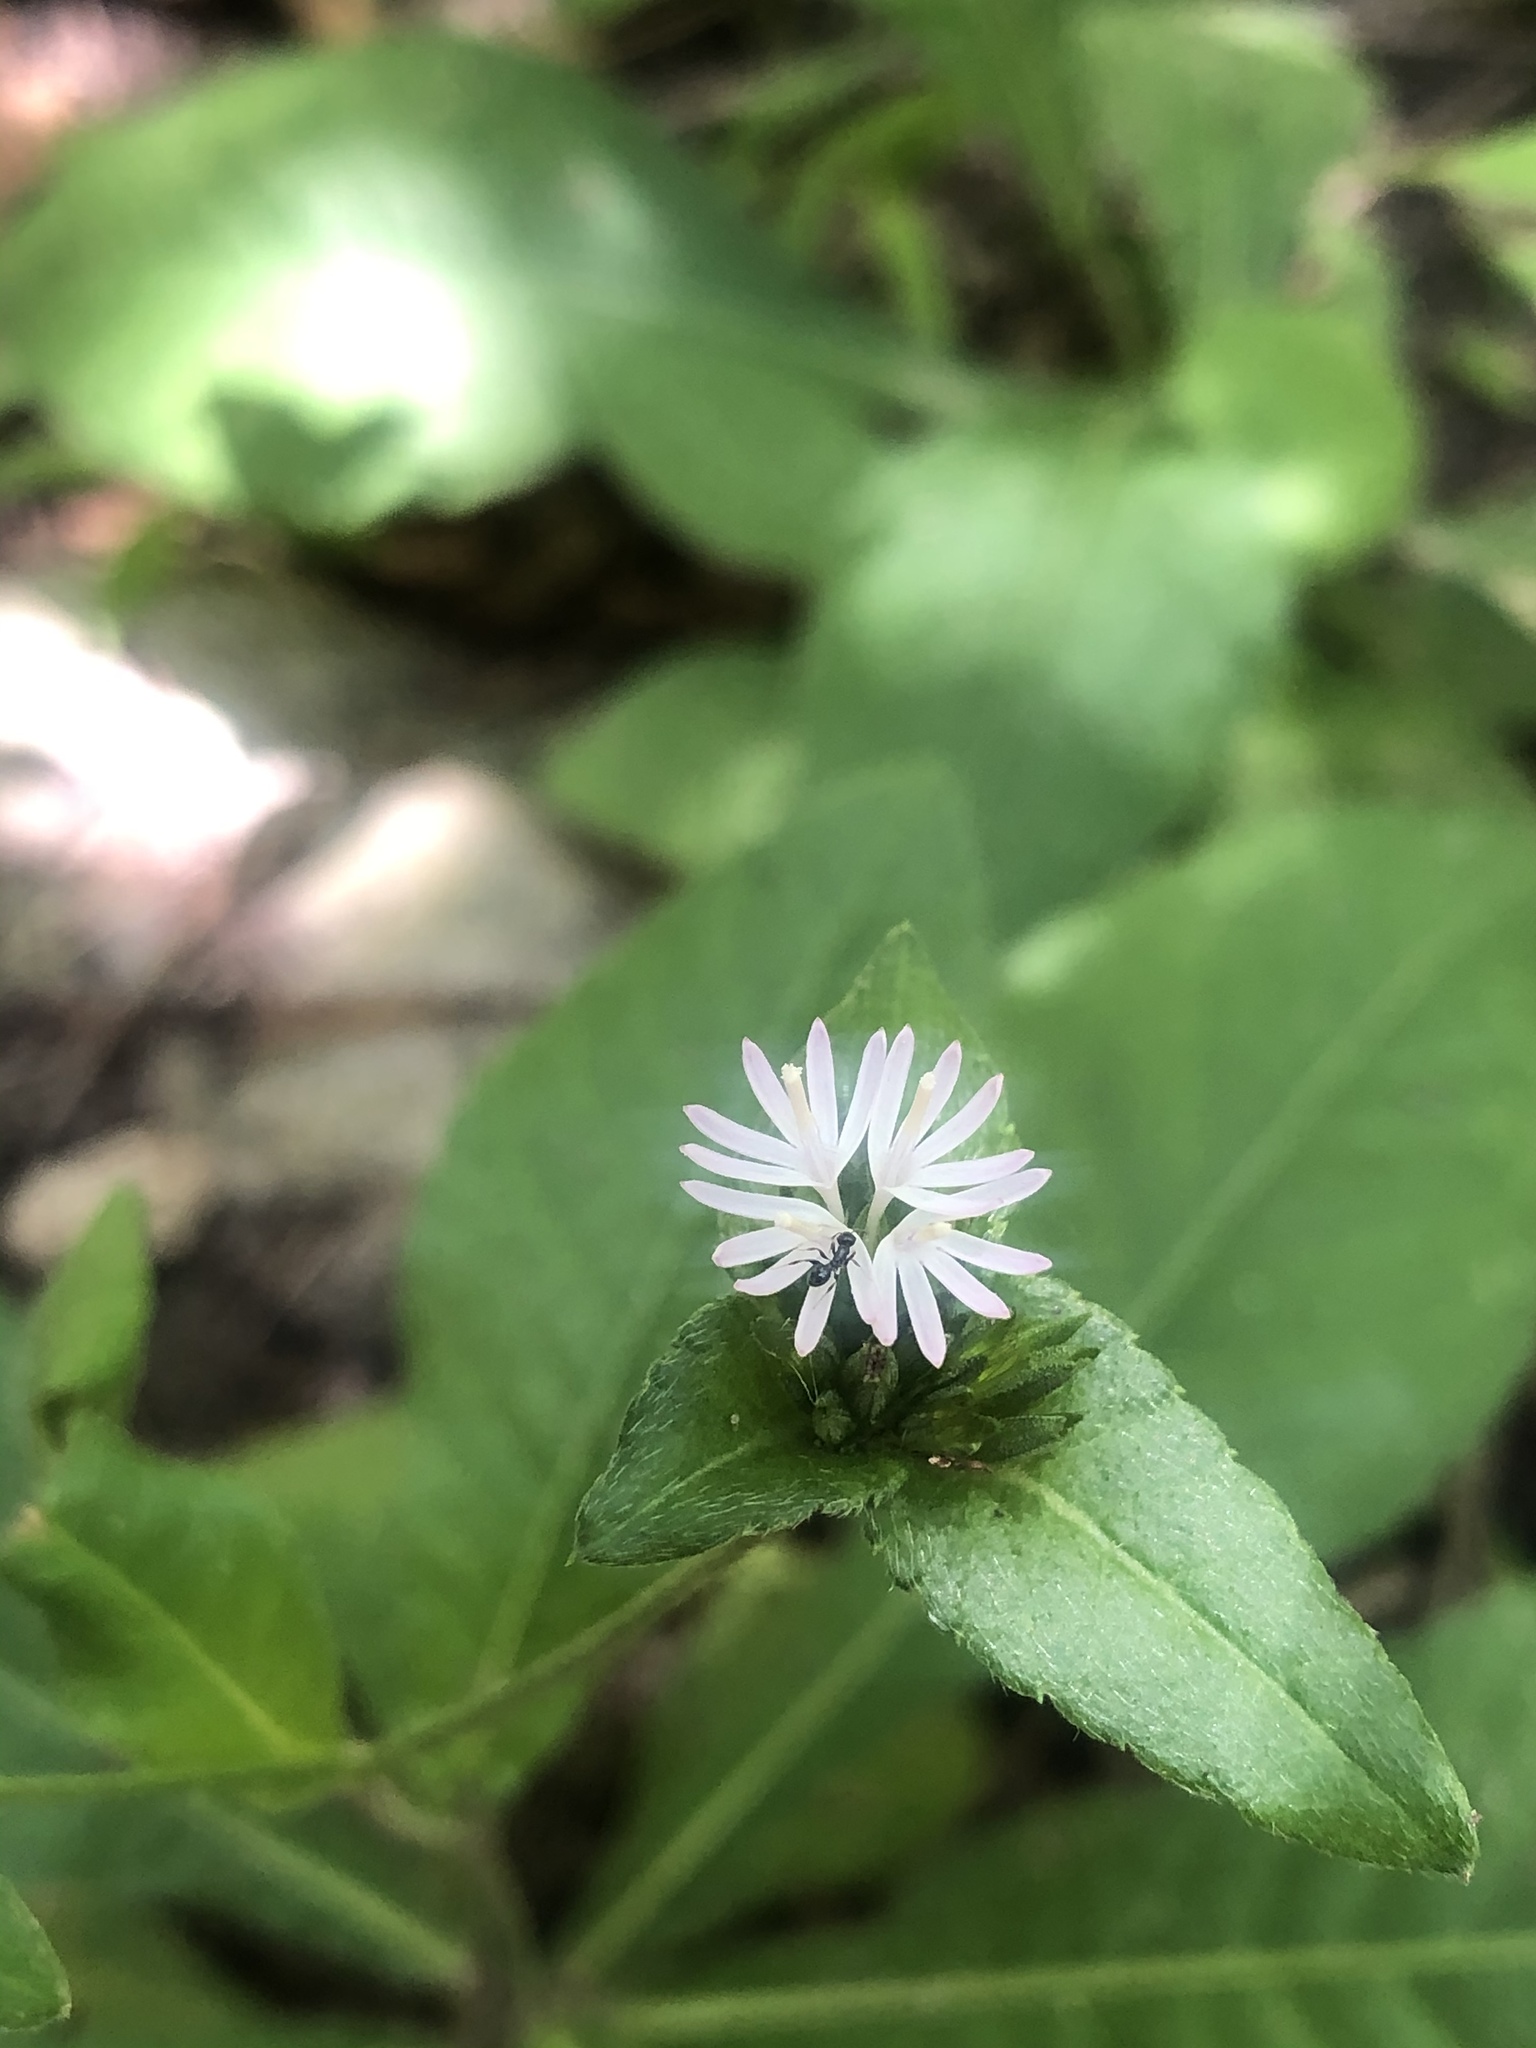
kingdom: Plantae
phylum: Tracheophyta
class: Magnoliopsida
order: Asterales
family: Asteraceae
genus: Elephantopus
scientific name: Elephantopus carolinianus
